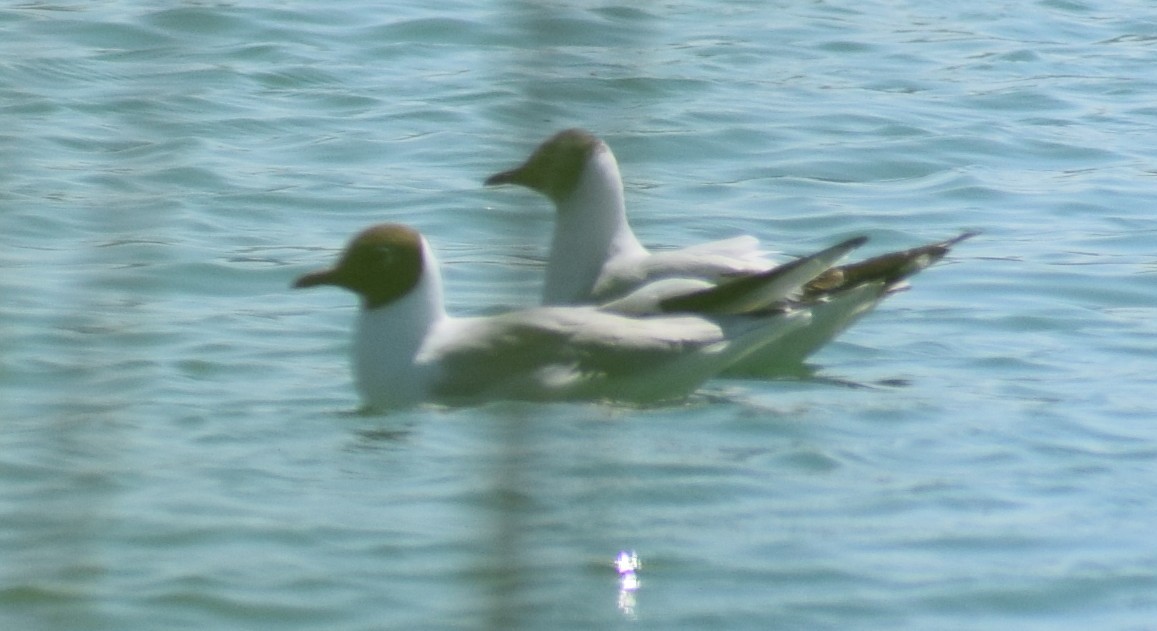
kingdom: Animalia
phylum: Chordata
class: Aves
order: Charadriiformes
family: Laridae
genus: Chroicocephalus
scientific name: Chroicocephalus ridibundus
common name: Black-headed gull
